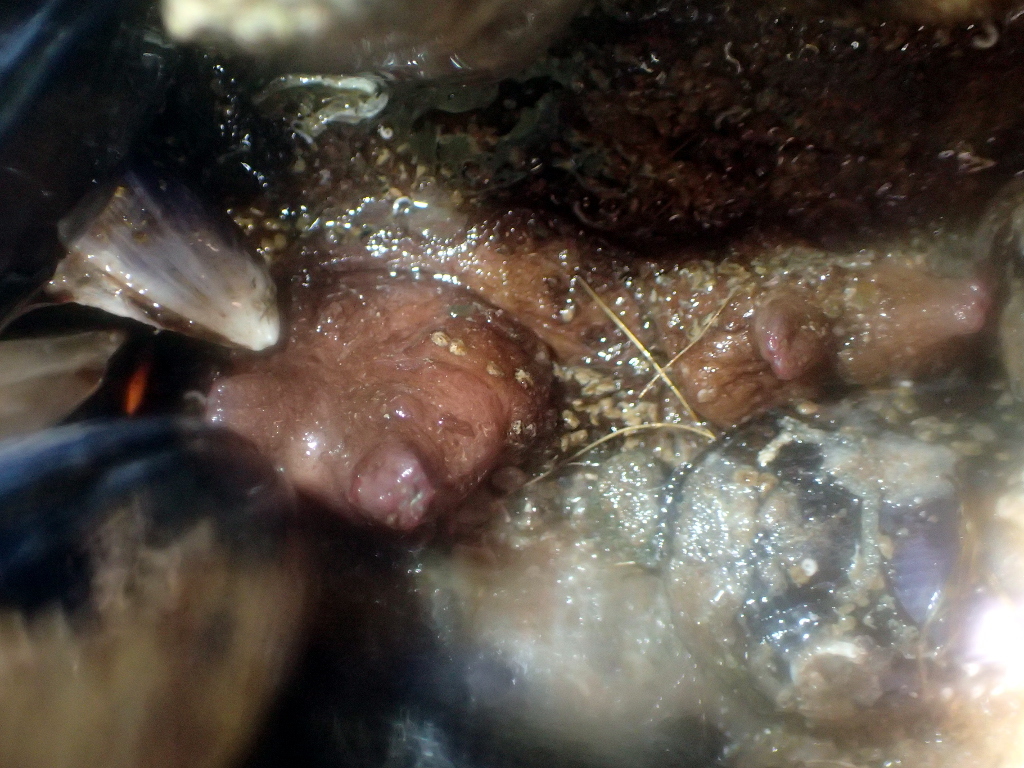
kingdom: Animalia
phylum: Chordata
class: Ascidiacea
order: Stolidobranchia
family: Styelidae
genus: Cnemidocarpa
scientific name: Cnemidocarpa bicornuta
